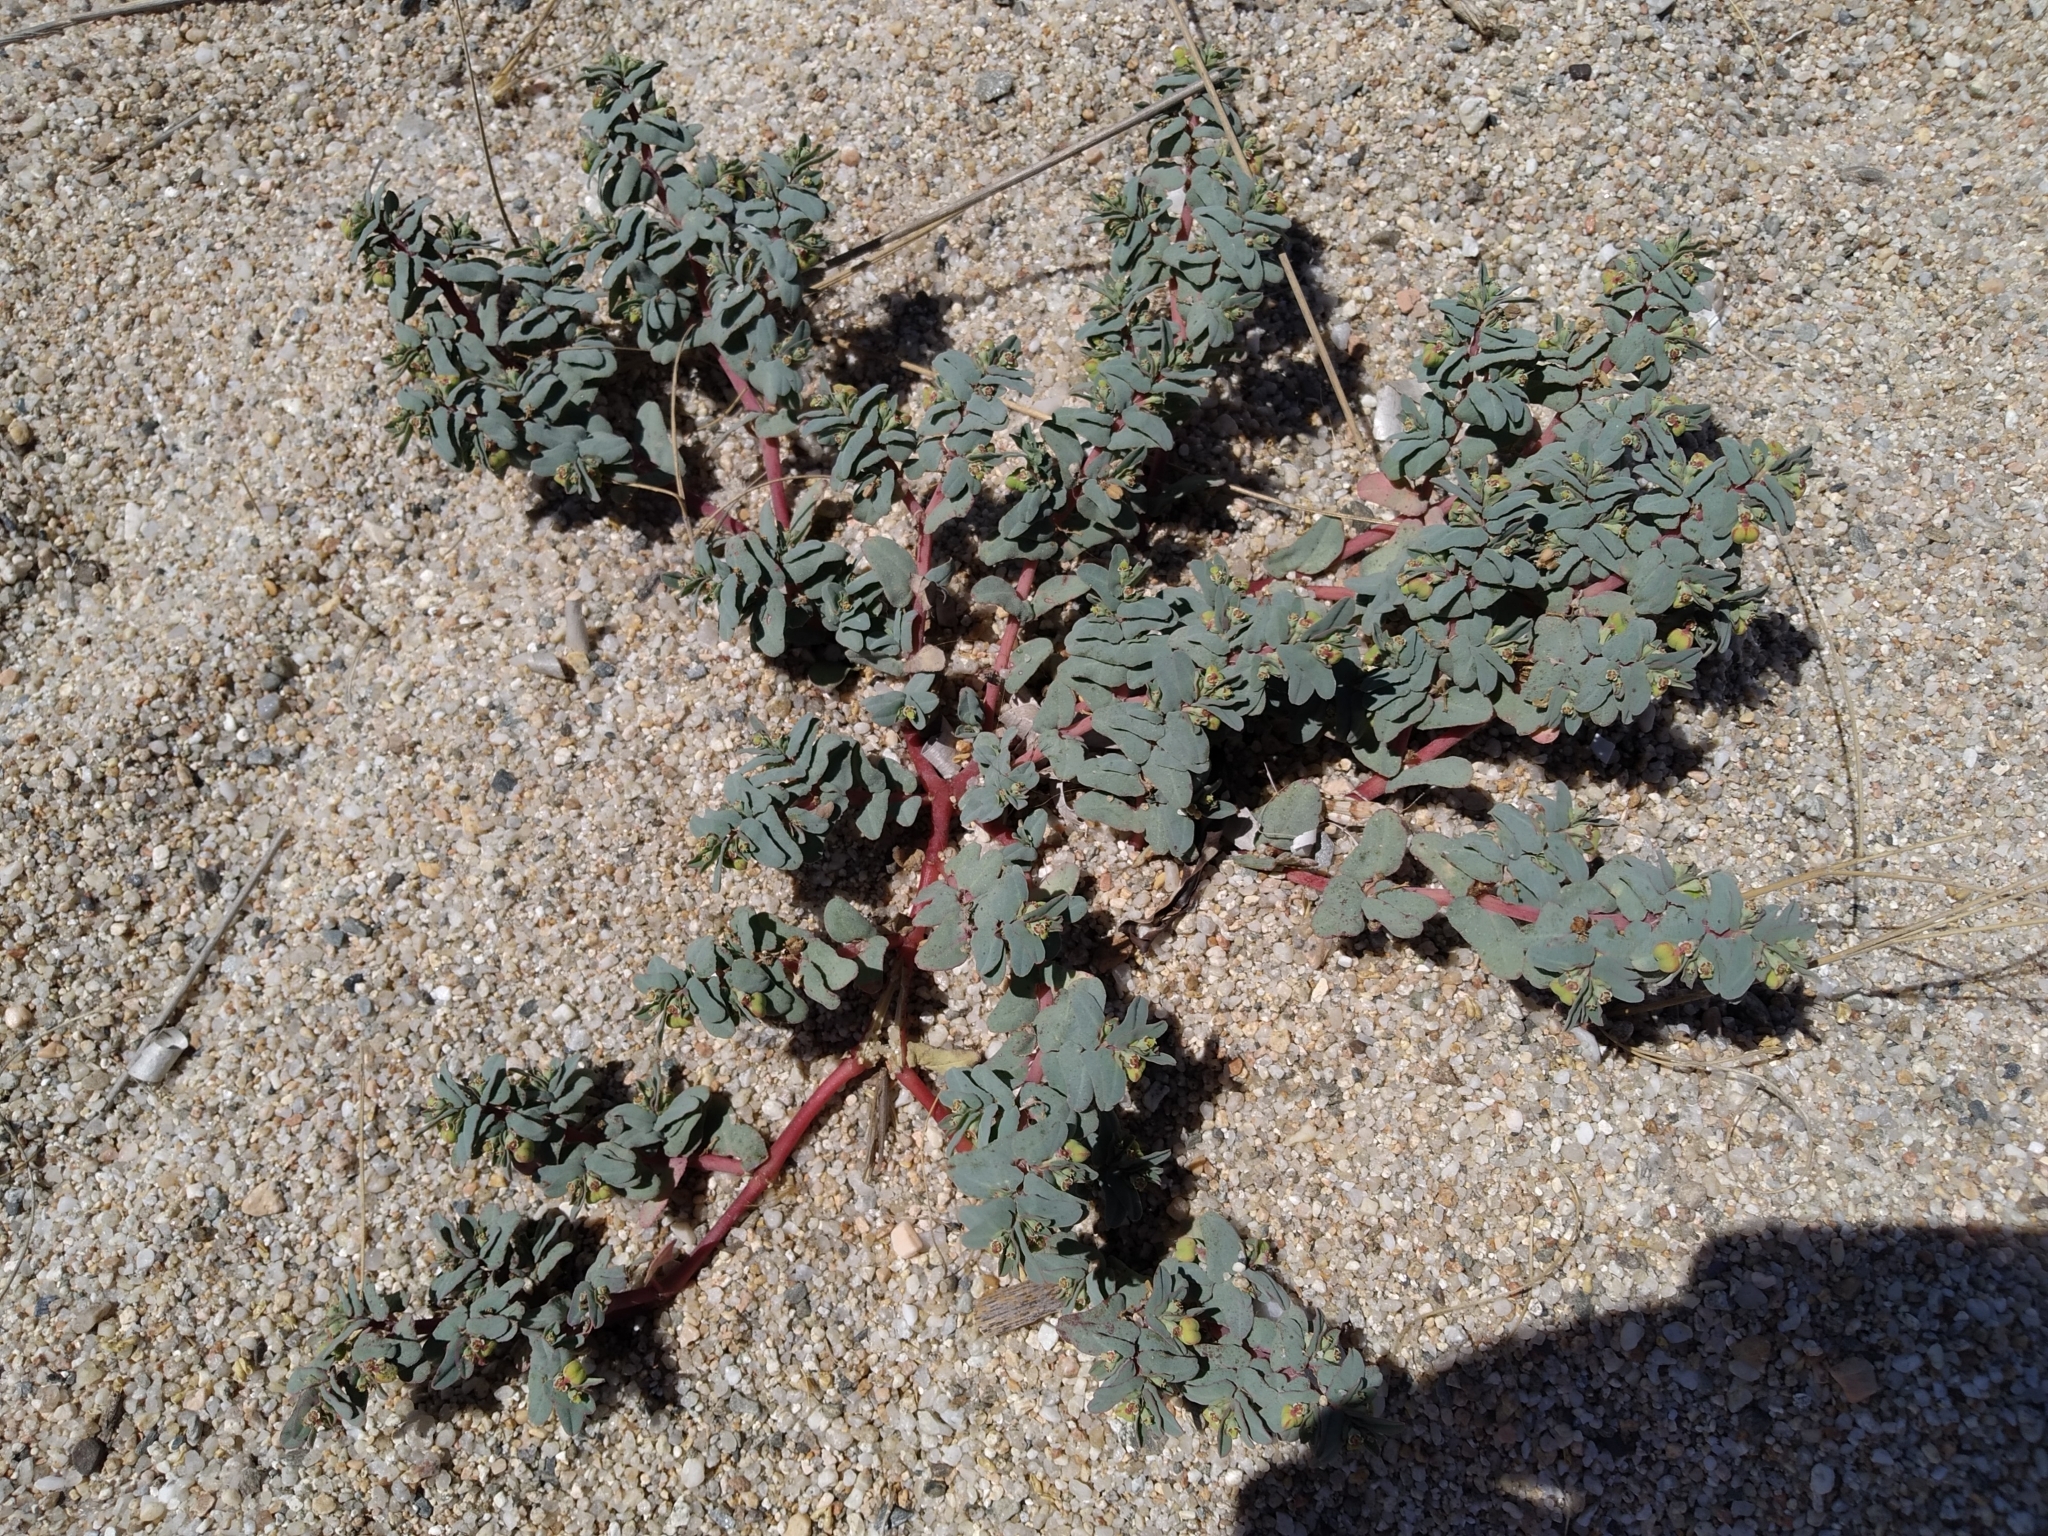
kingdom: Plantae
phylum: Tracheophyta
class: Magnoliopsida
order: Malpighiales
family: Euphorbiaceae
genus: Euphorbia
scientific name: Euphorbia peplis
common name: Purple spurge
